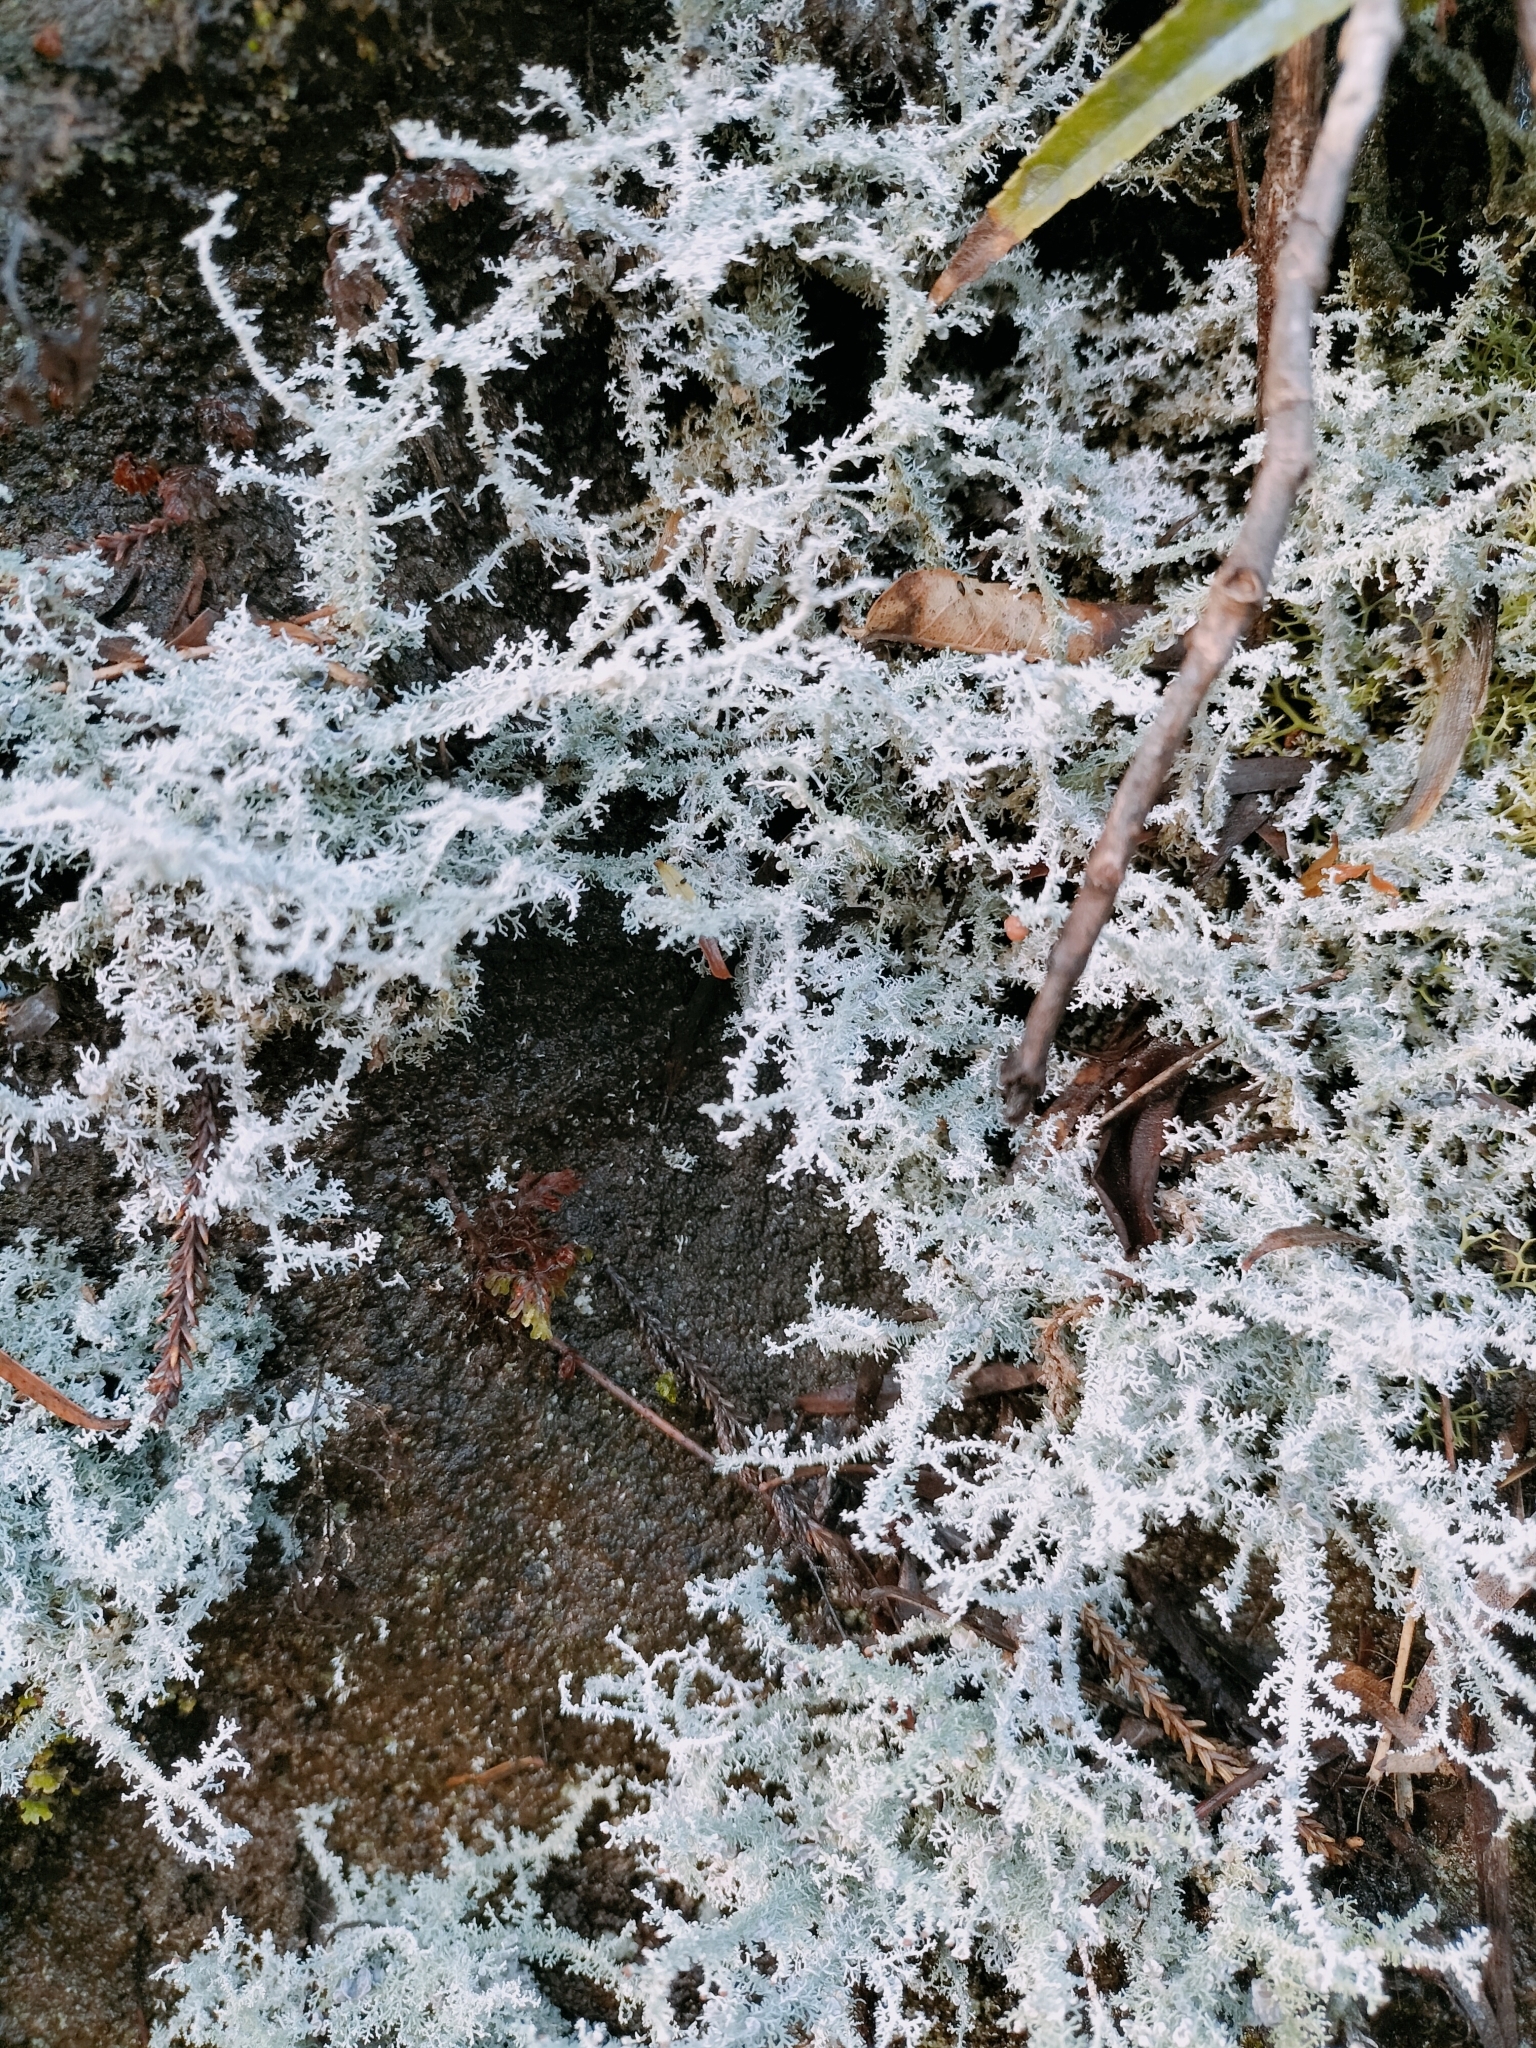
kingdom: Fungi
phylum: Ascomycota
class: Lecanoromycetes
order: Lecanorales
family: Stereocaulaceae
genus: Stereocaulon
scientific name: Stereocaulon ramulosum
